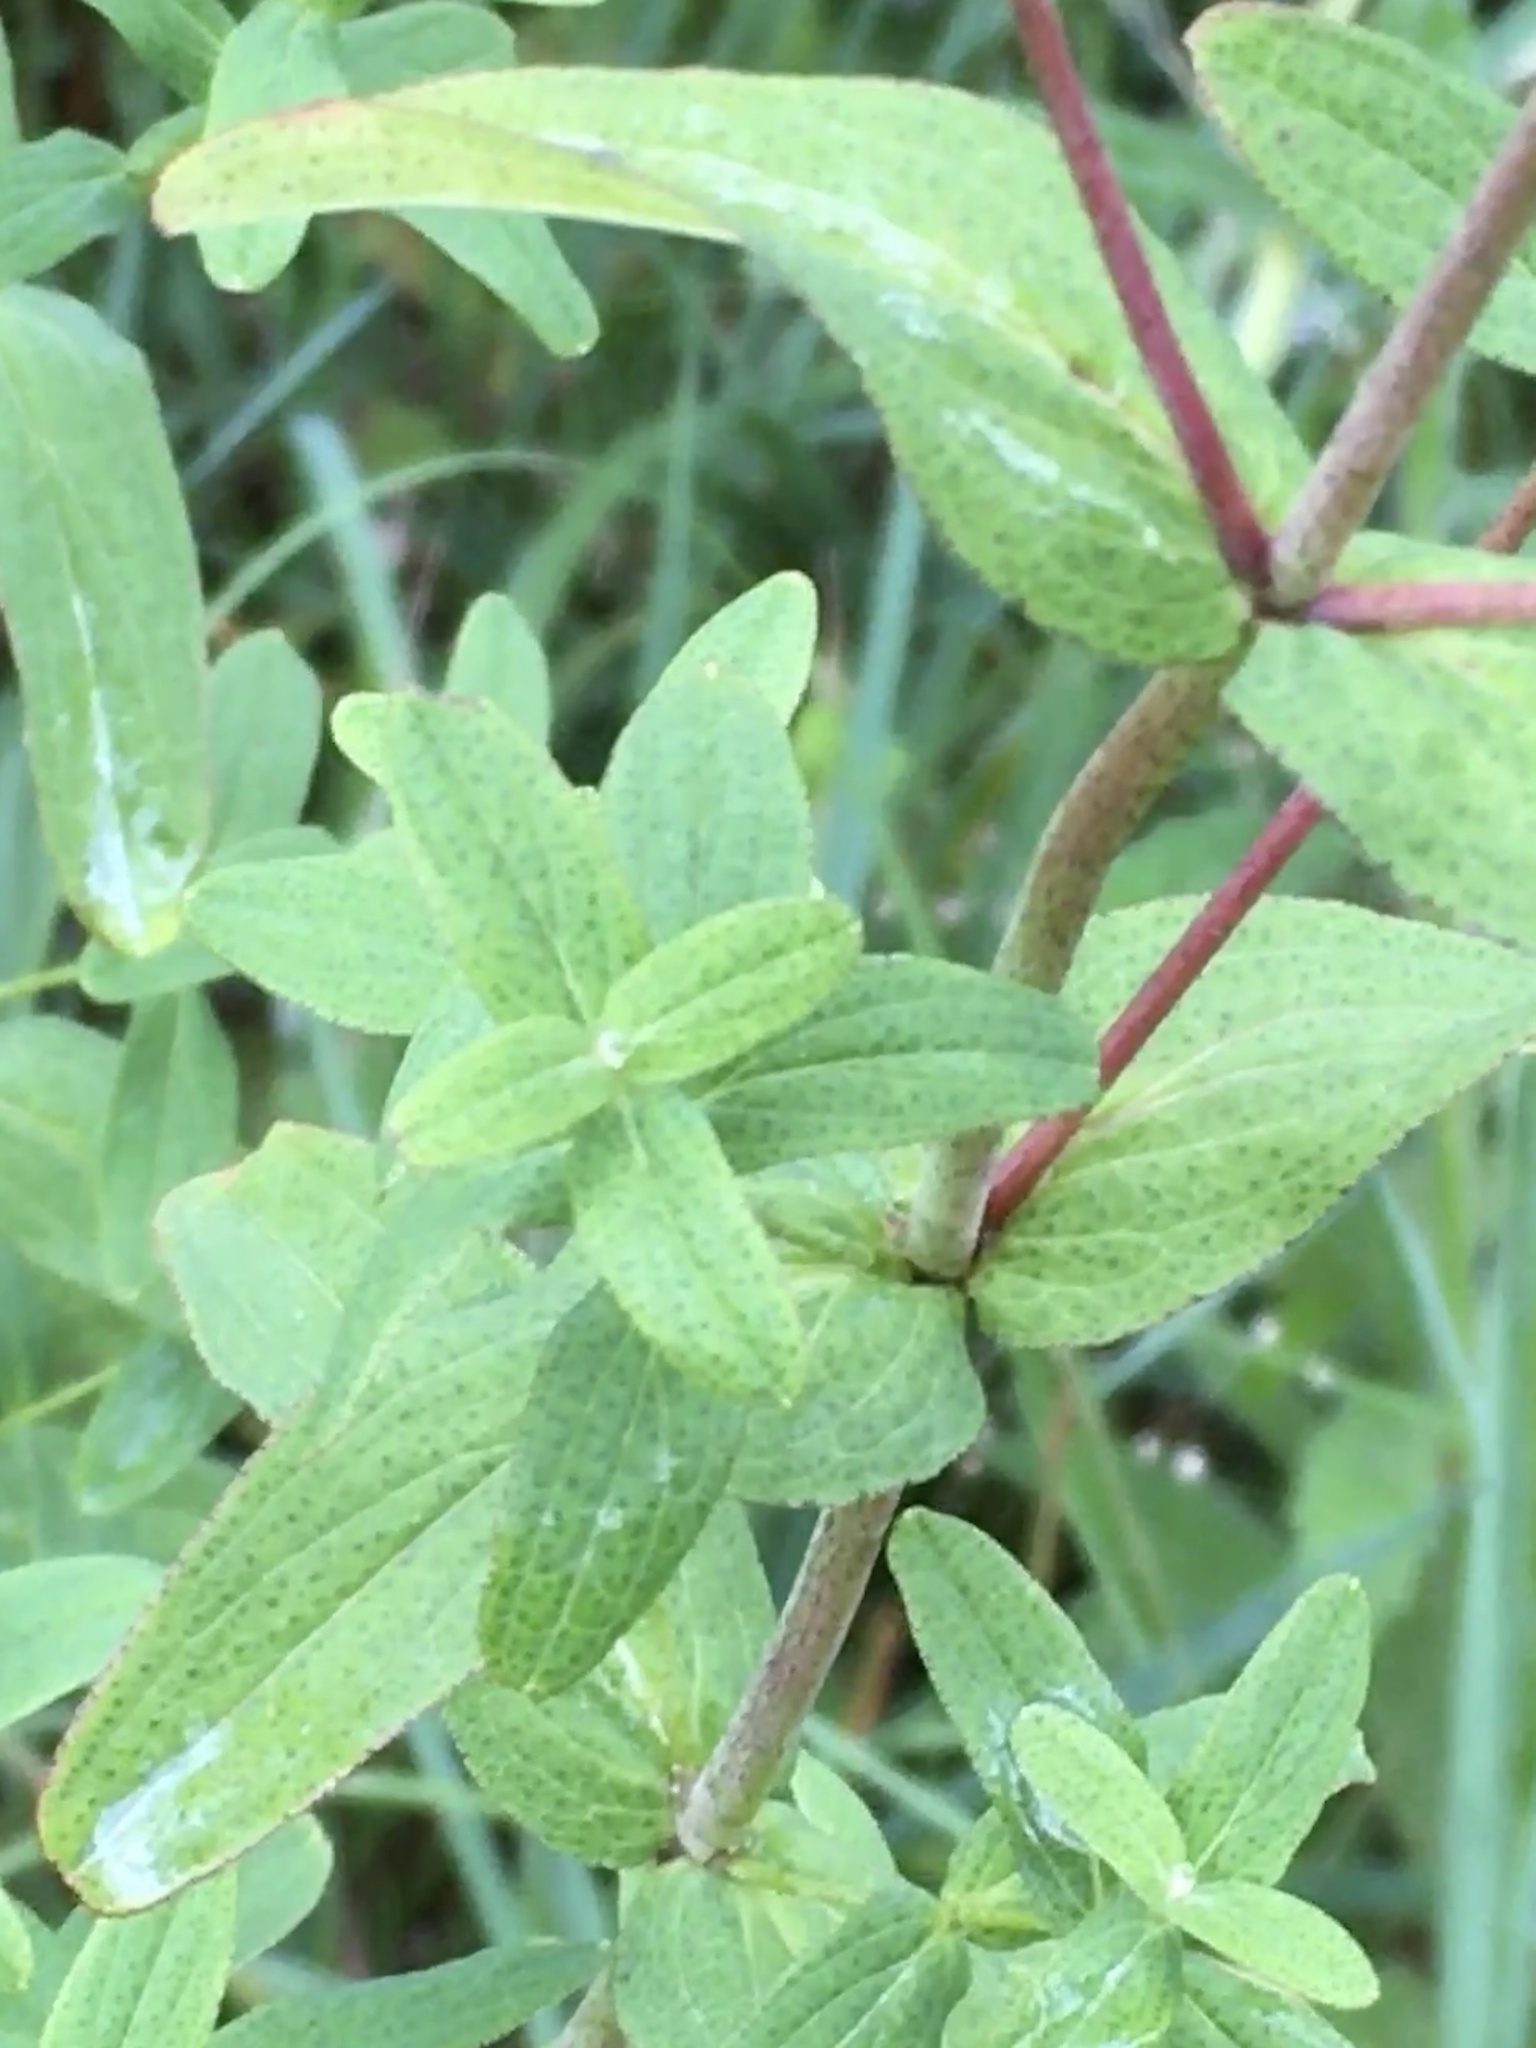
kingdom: Plantae
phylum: Tracheophyta
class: Magnoliopsida
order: Malpighiales
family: Hypericaceae
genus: Hypericum
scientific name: Hypericum punctatum
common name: Spotted st. john's-wort
